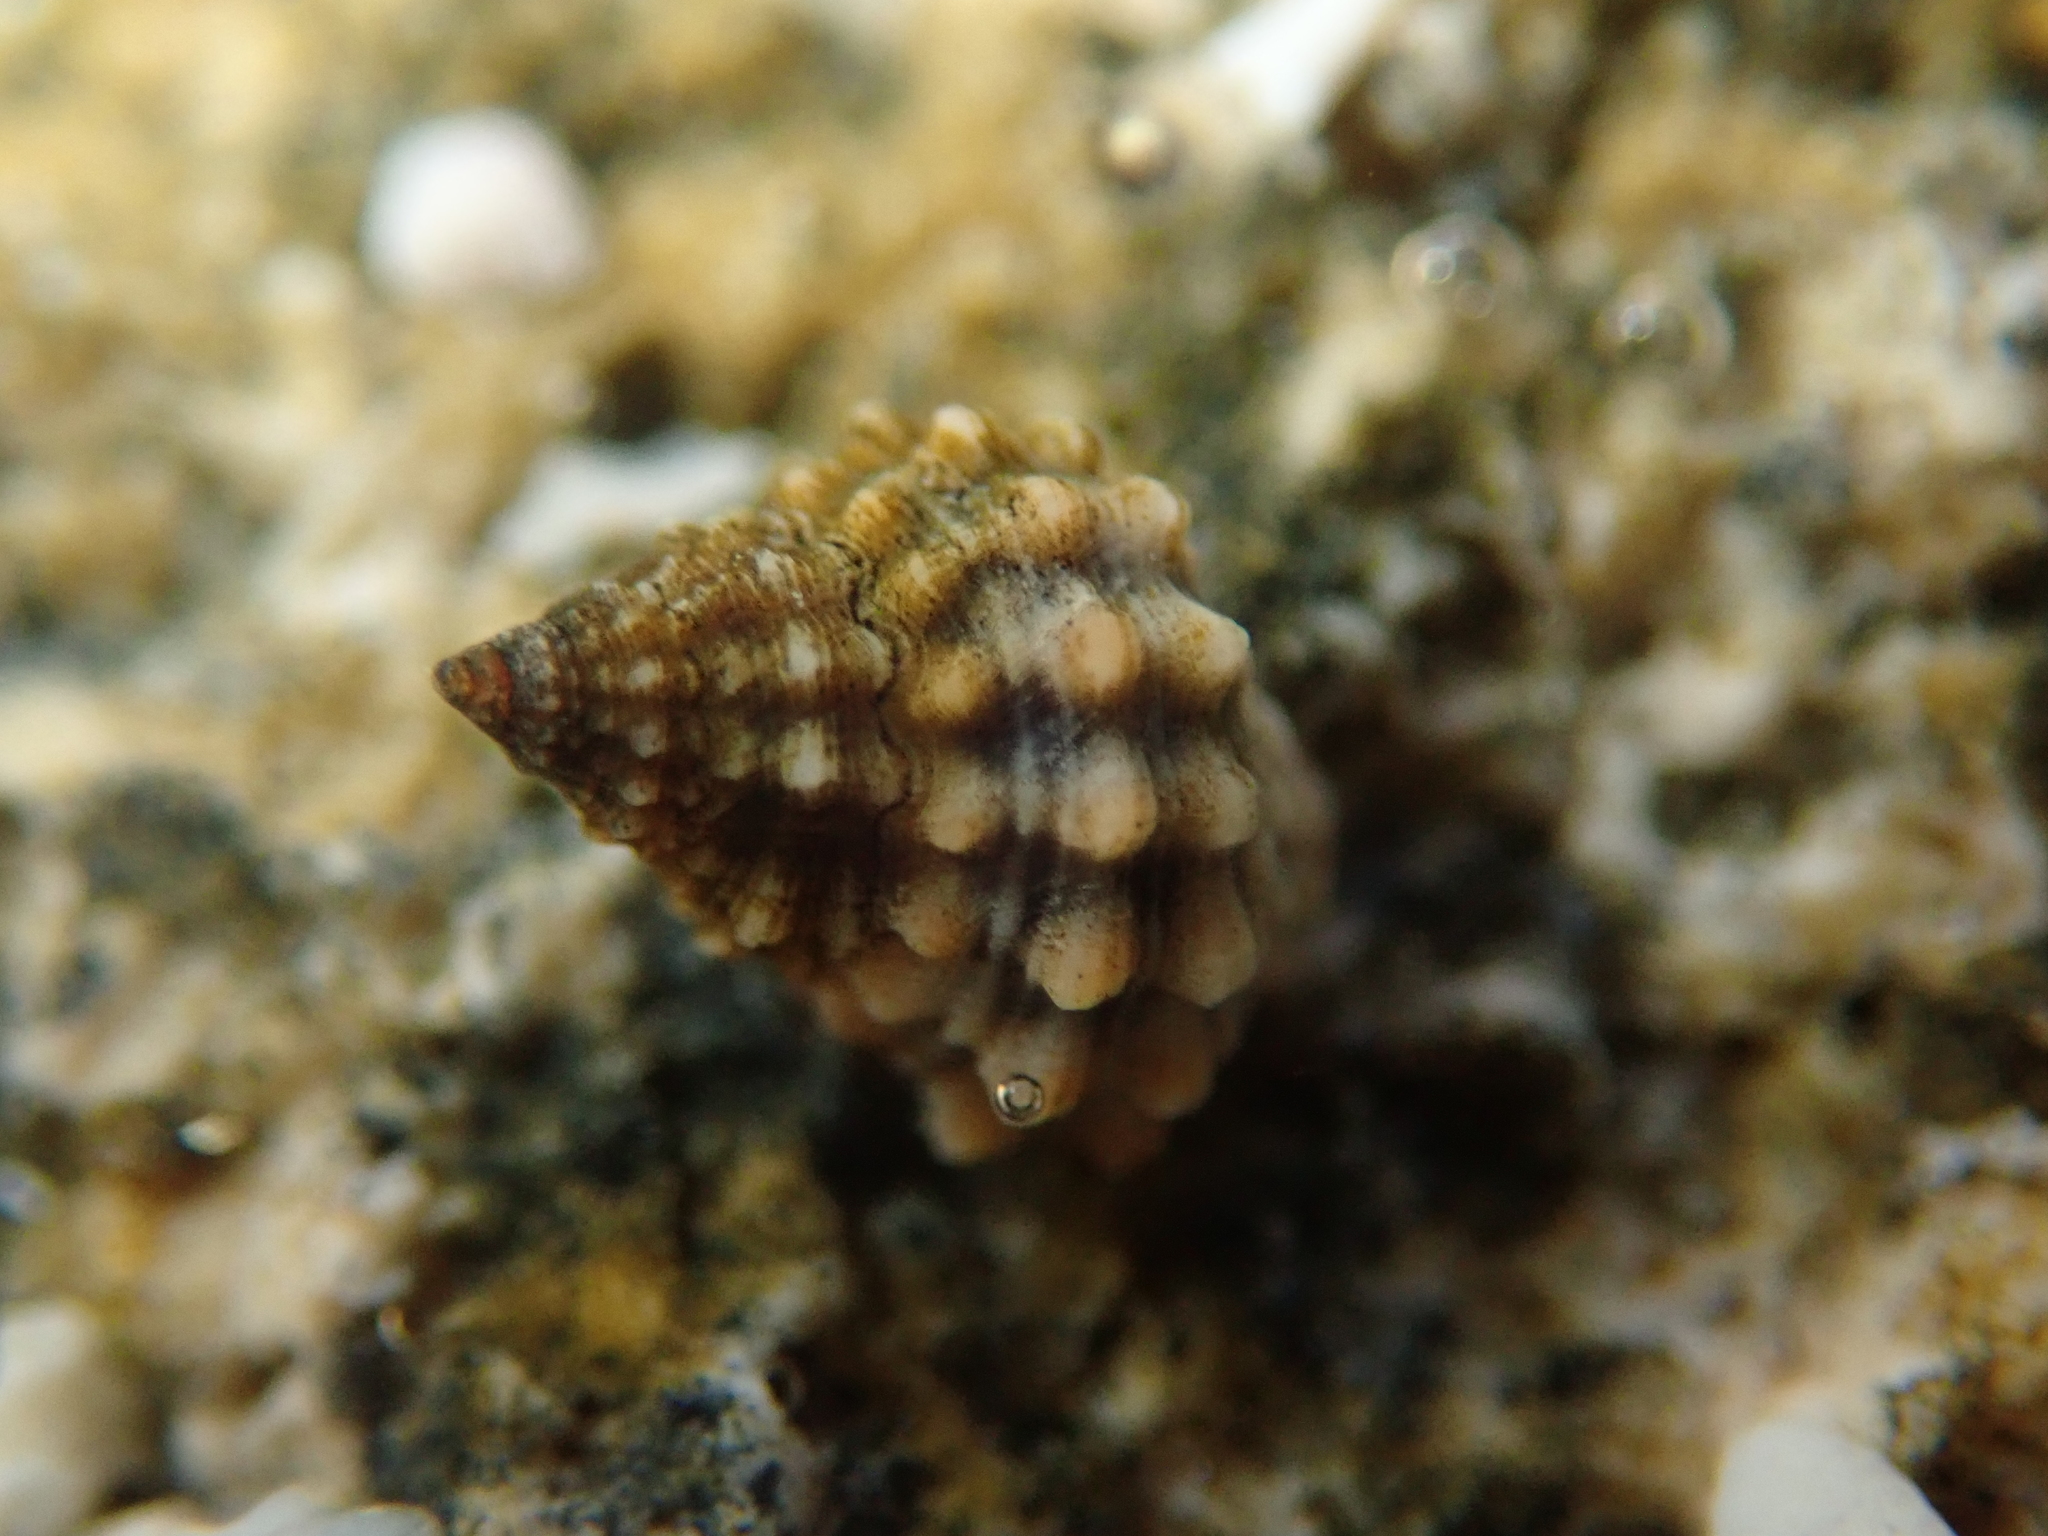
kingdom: Animalia
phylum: Mollusca
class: Gastropoda
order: Littorinimorpha
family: Littorinidae
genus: Echinolittorina
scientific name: Echinolittorina tuberculata
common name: Common periwinkle
